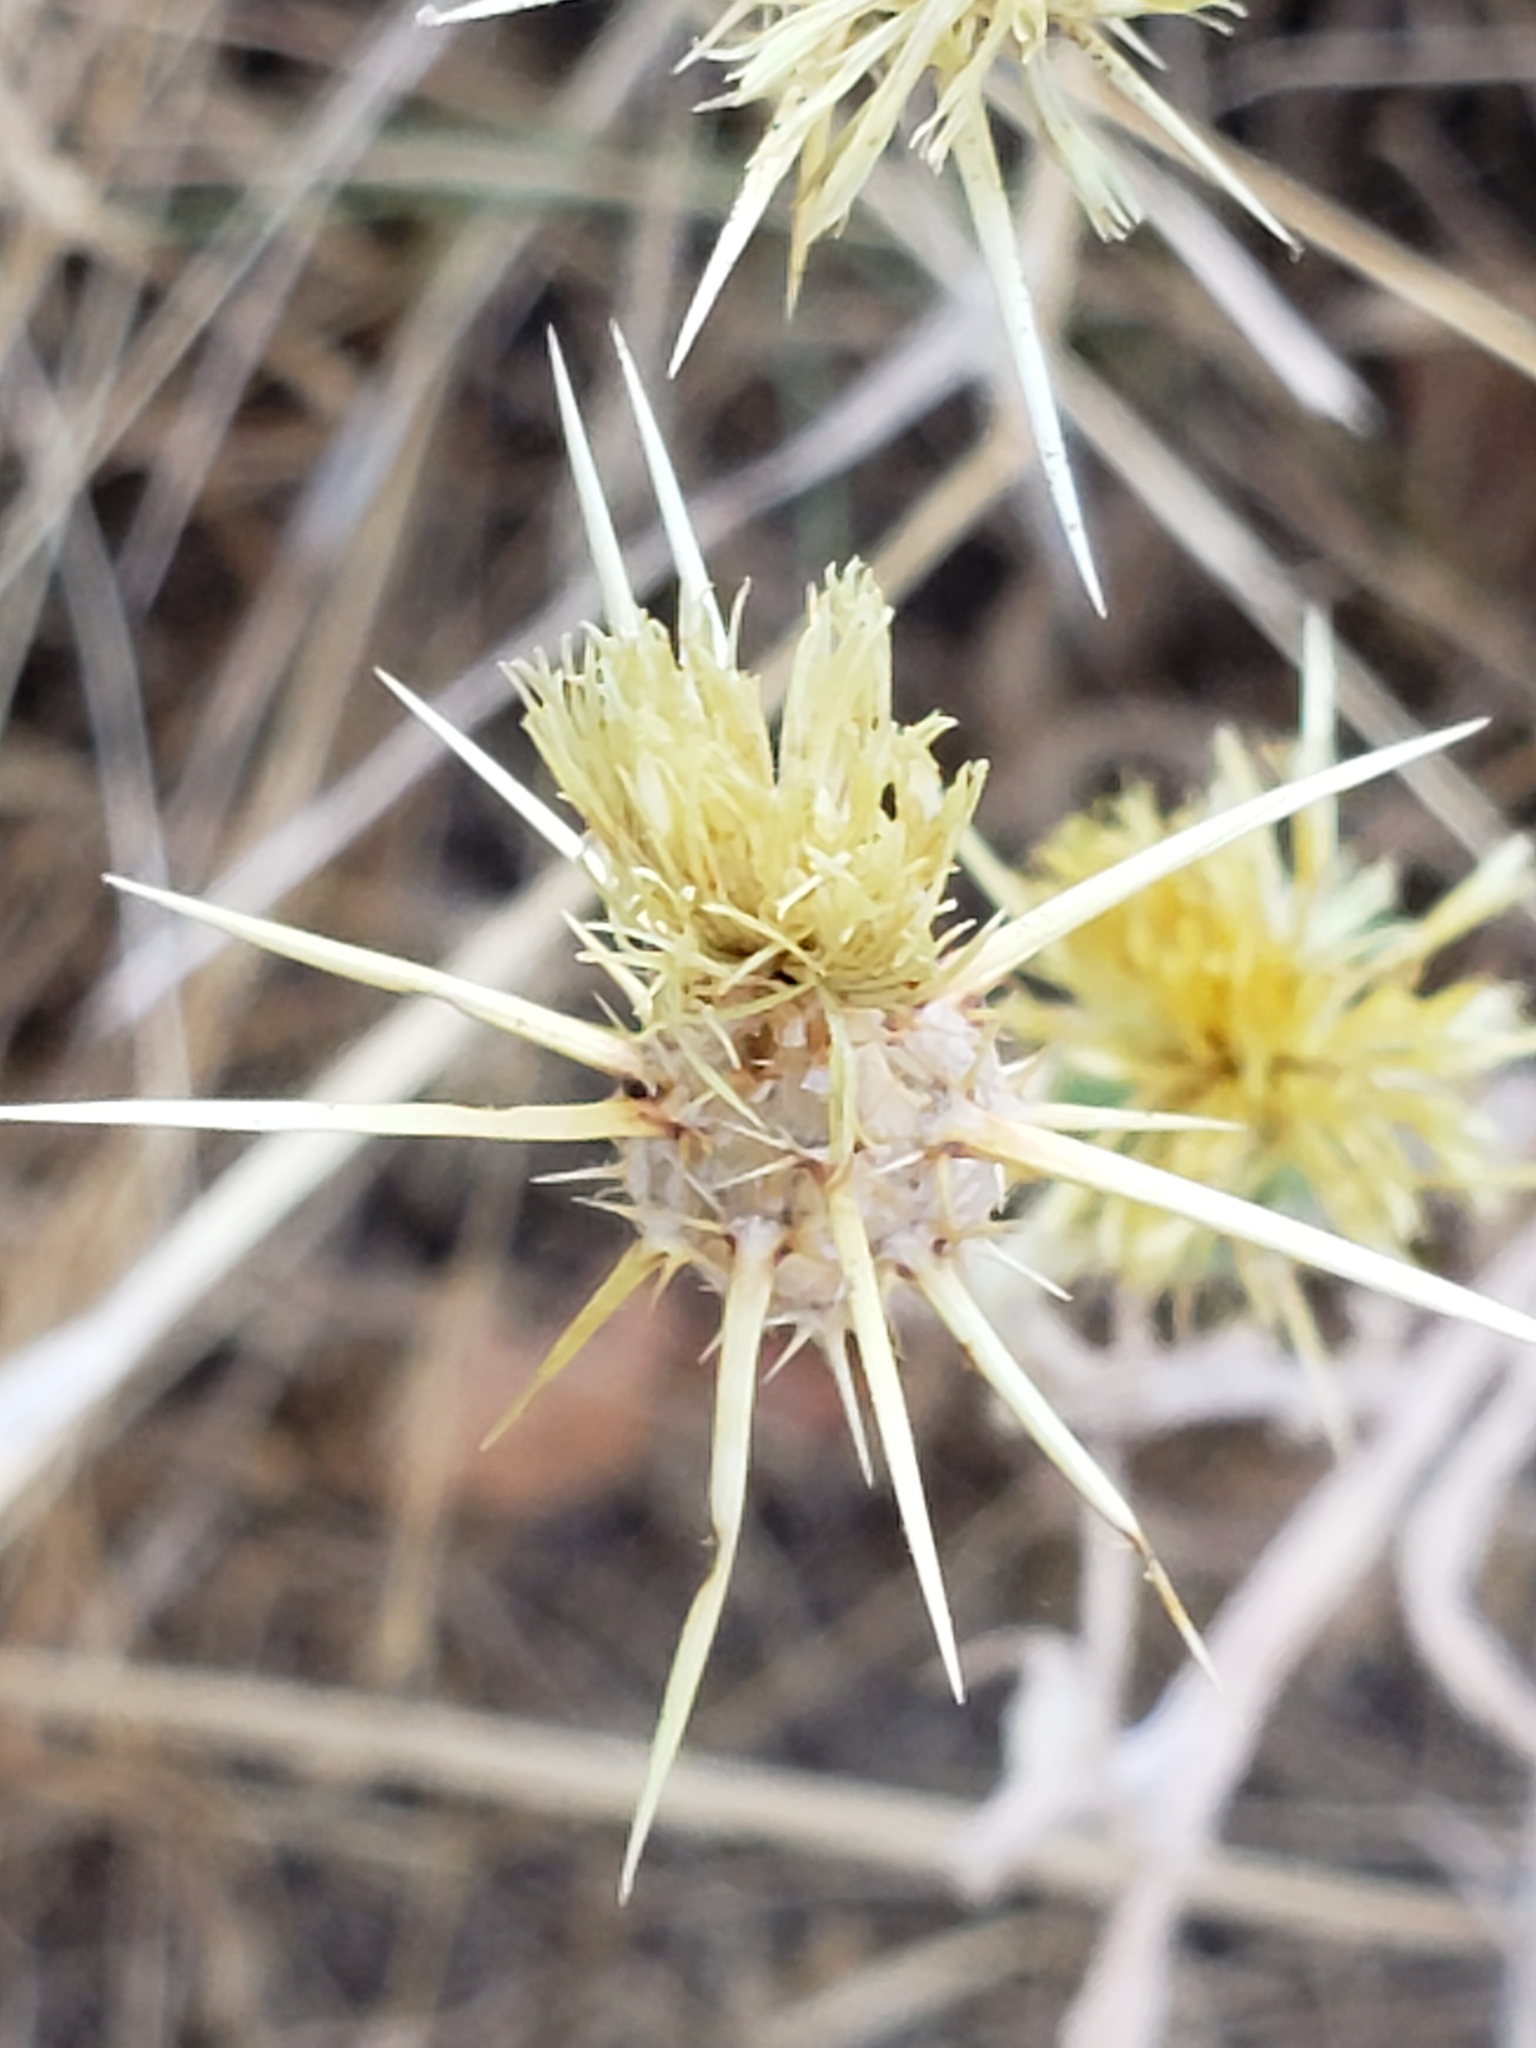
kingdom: Plantae
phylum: Tracheophyta
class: Magnoliopsida
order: Asterales
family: Asteraceae
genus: Centaurea
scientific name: Centaurea solstitialis
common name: Yellow star-thistle
